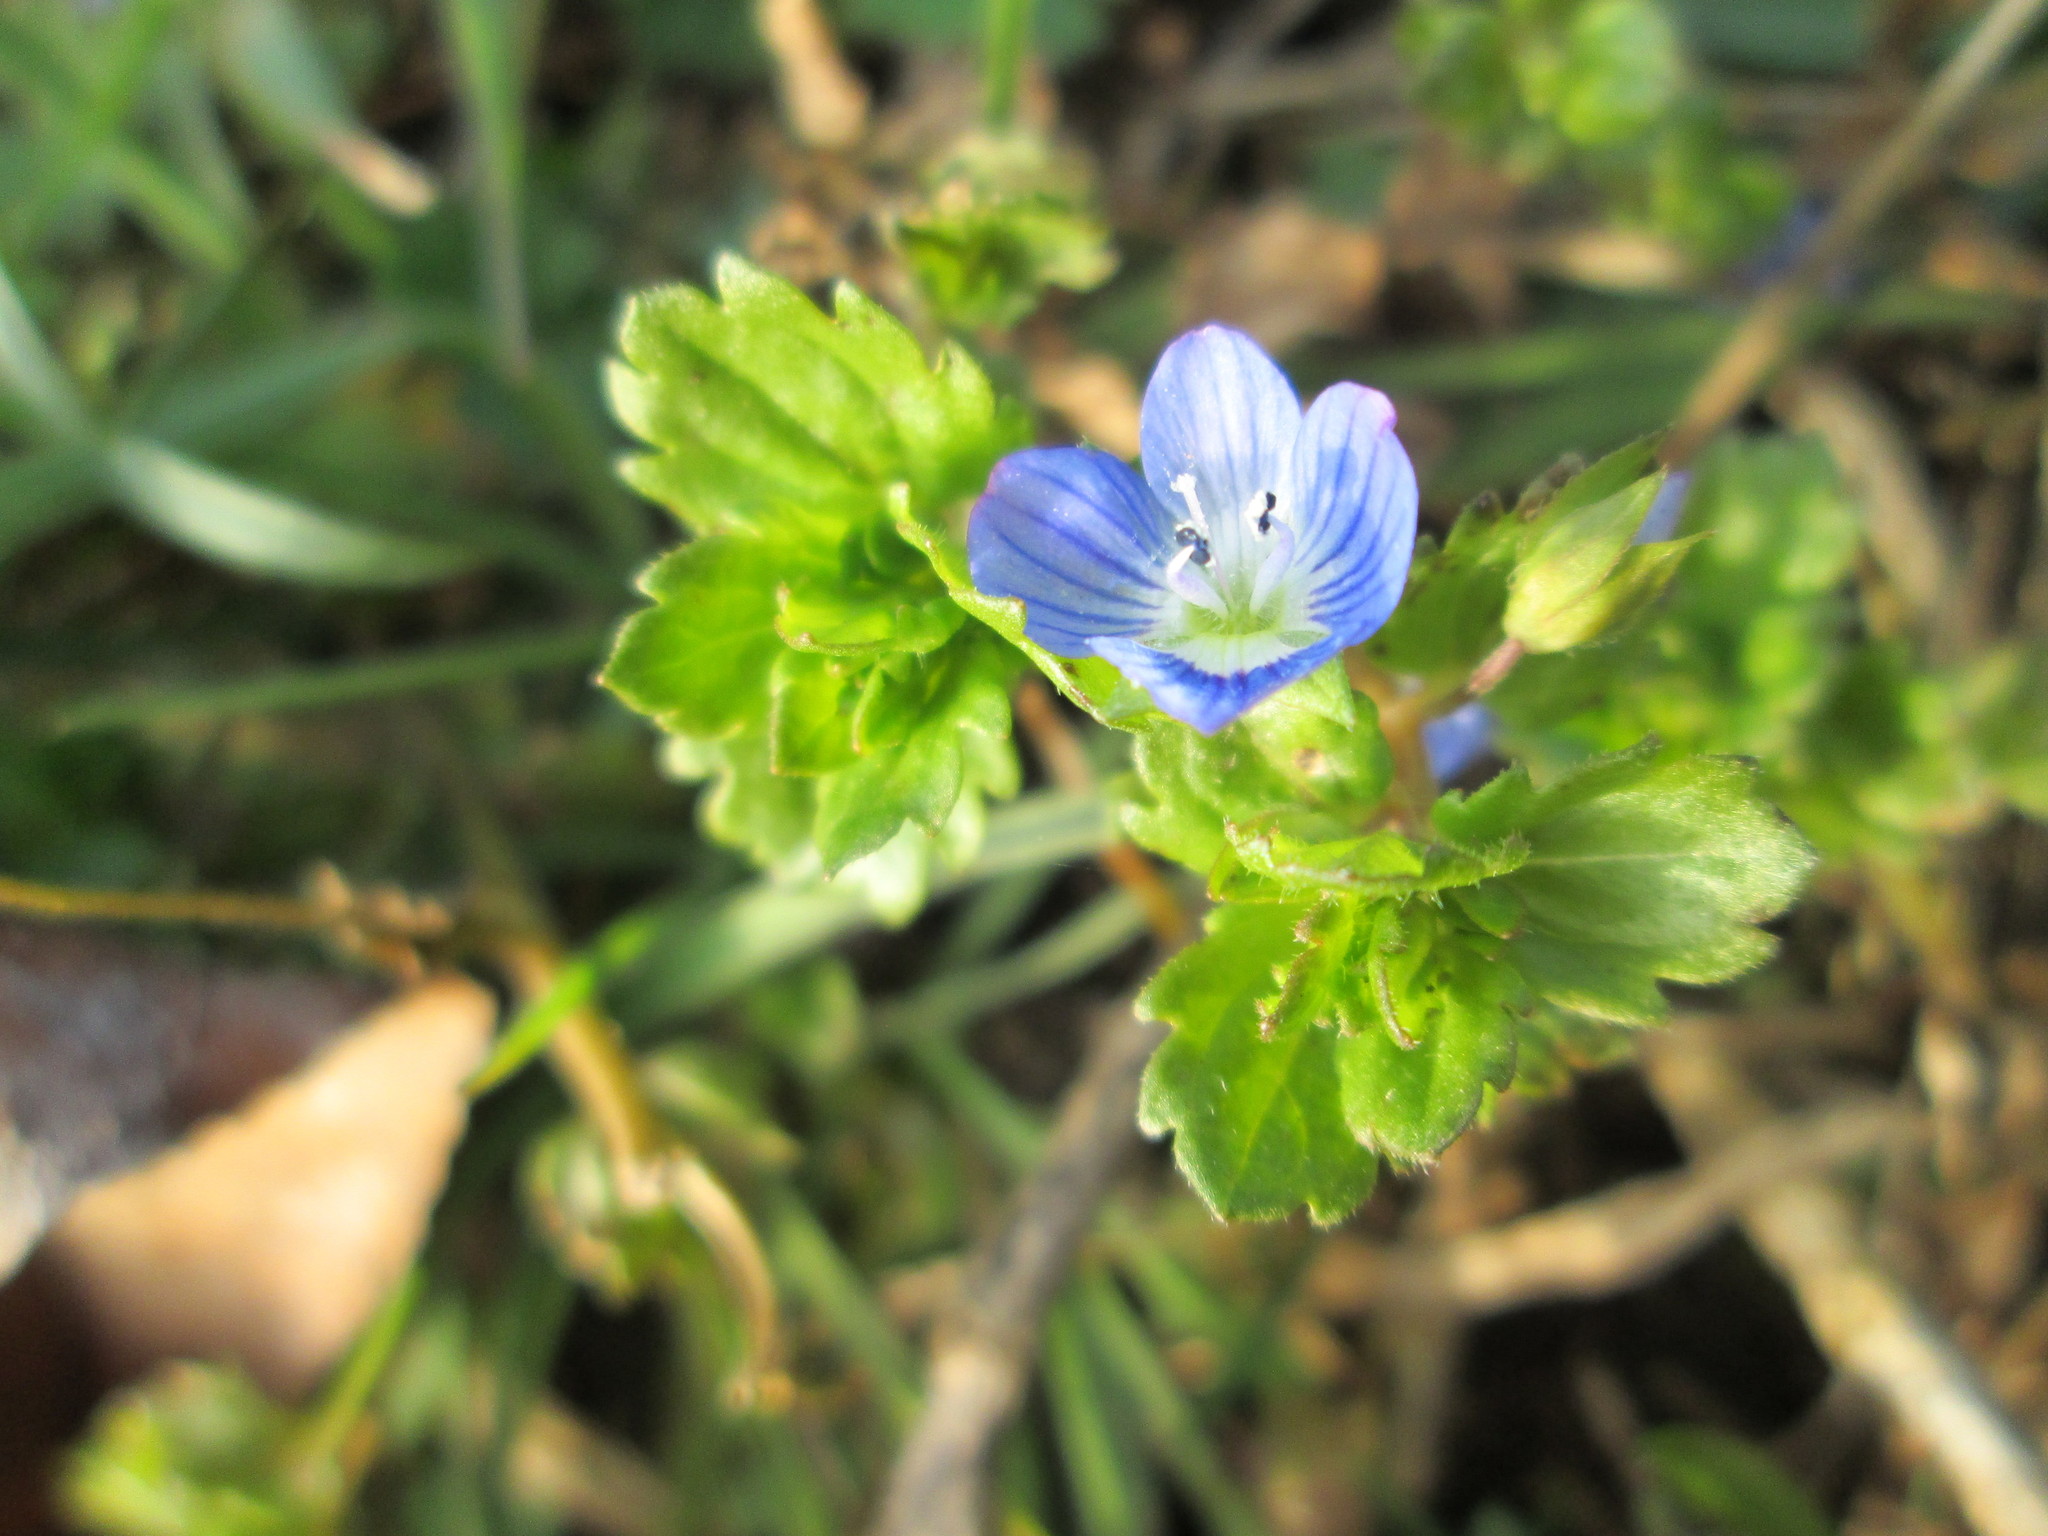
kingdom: Plantae
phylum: Tracheophyta
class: Magnoliopsida
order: Lamiales
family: Plantaginaceae
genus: Veronica
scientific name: Veronica persica
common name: Common field-speedwell
